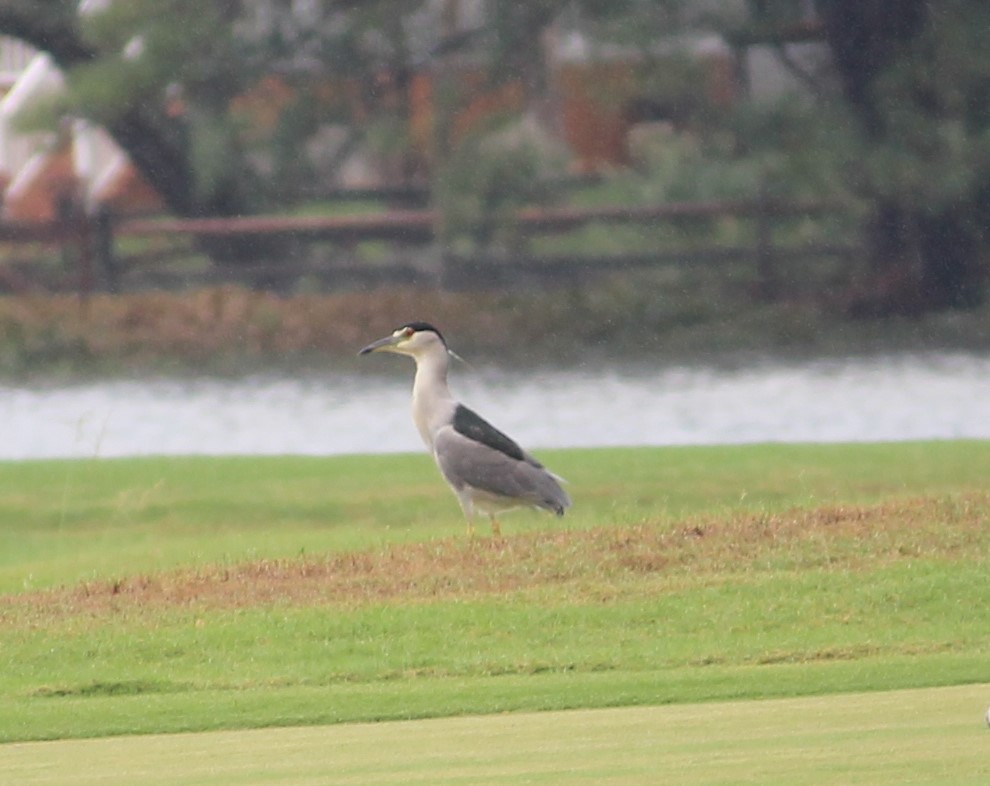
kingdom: Animalia
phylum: Chordata
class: Aves
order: Pelecaniformes
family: Ardeidae
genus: Nycticorax
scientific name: Nycticorax nycticorax
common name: Black-crowned night heron
